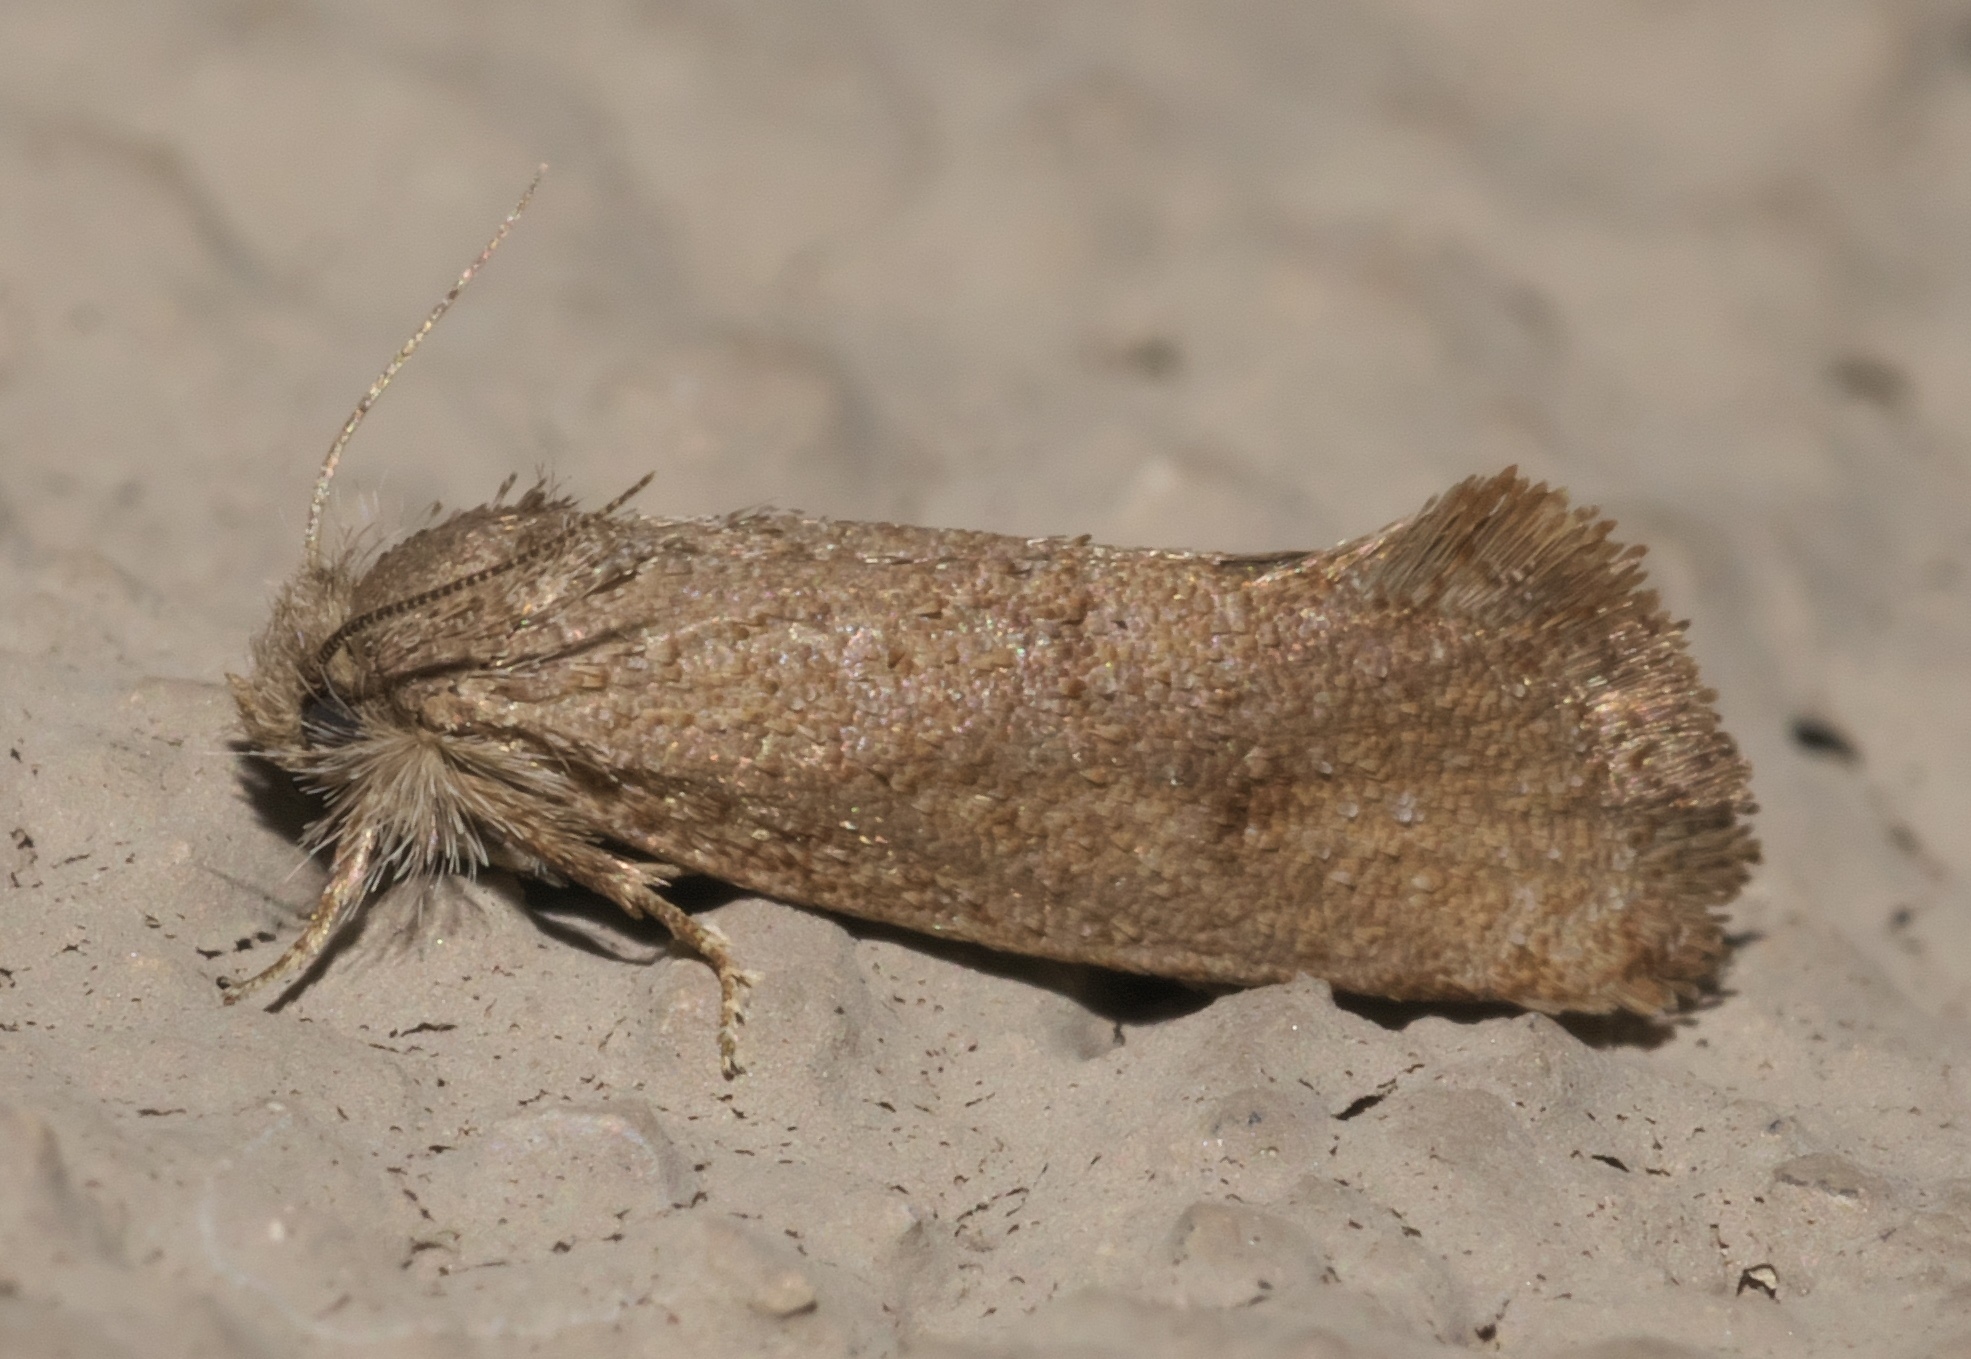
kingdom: Animalia
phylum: Arthropoda
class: Insecta
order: Lepidoptera
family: Tineidae
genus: Acrolophus
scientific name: Acrolophus heppneri
